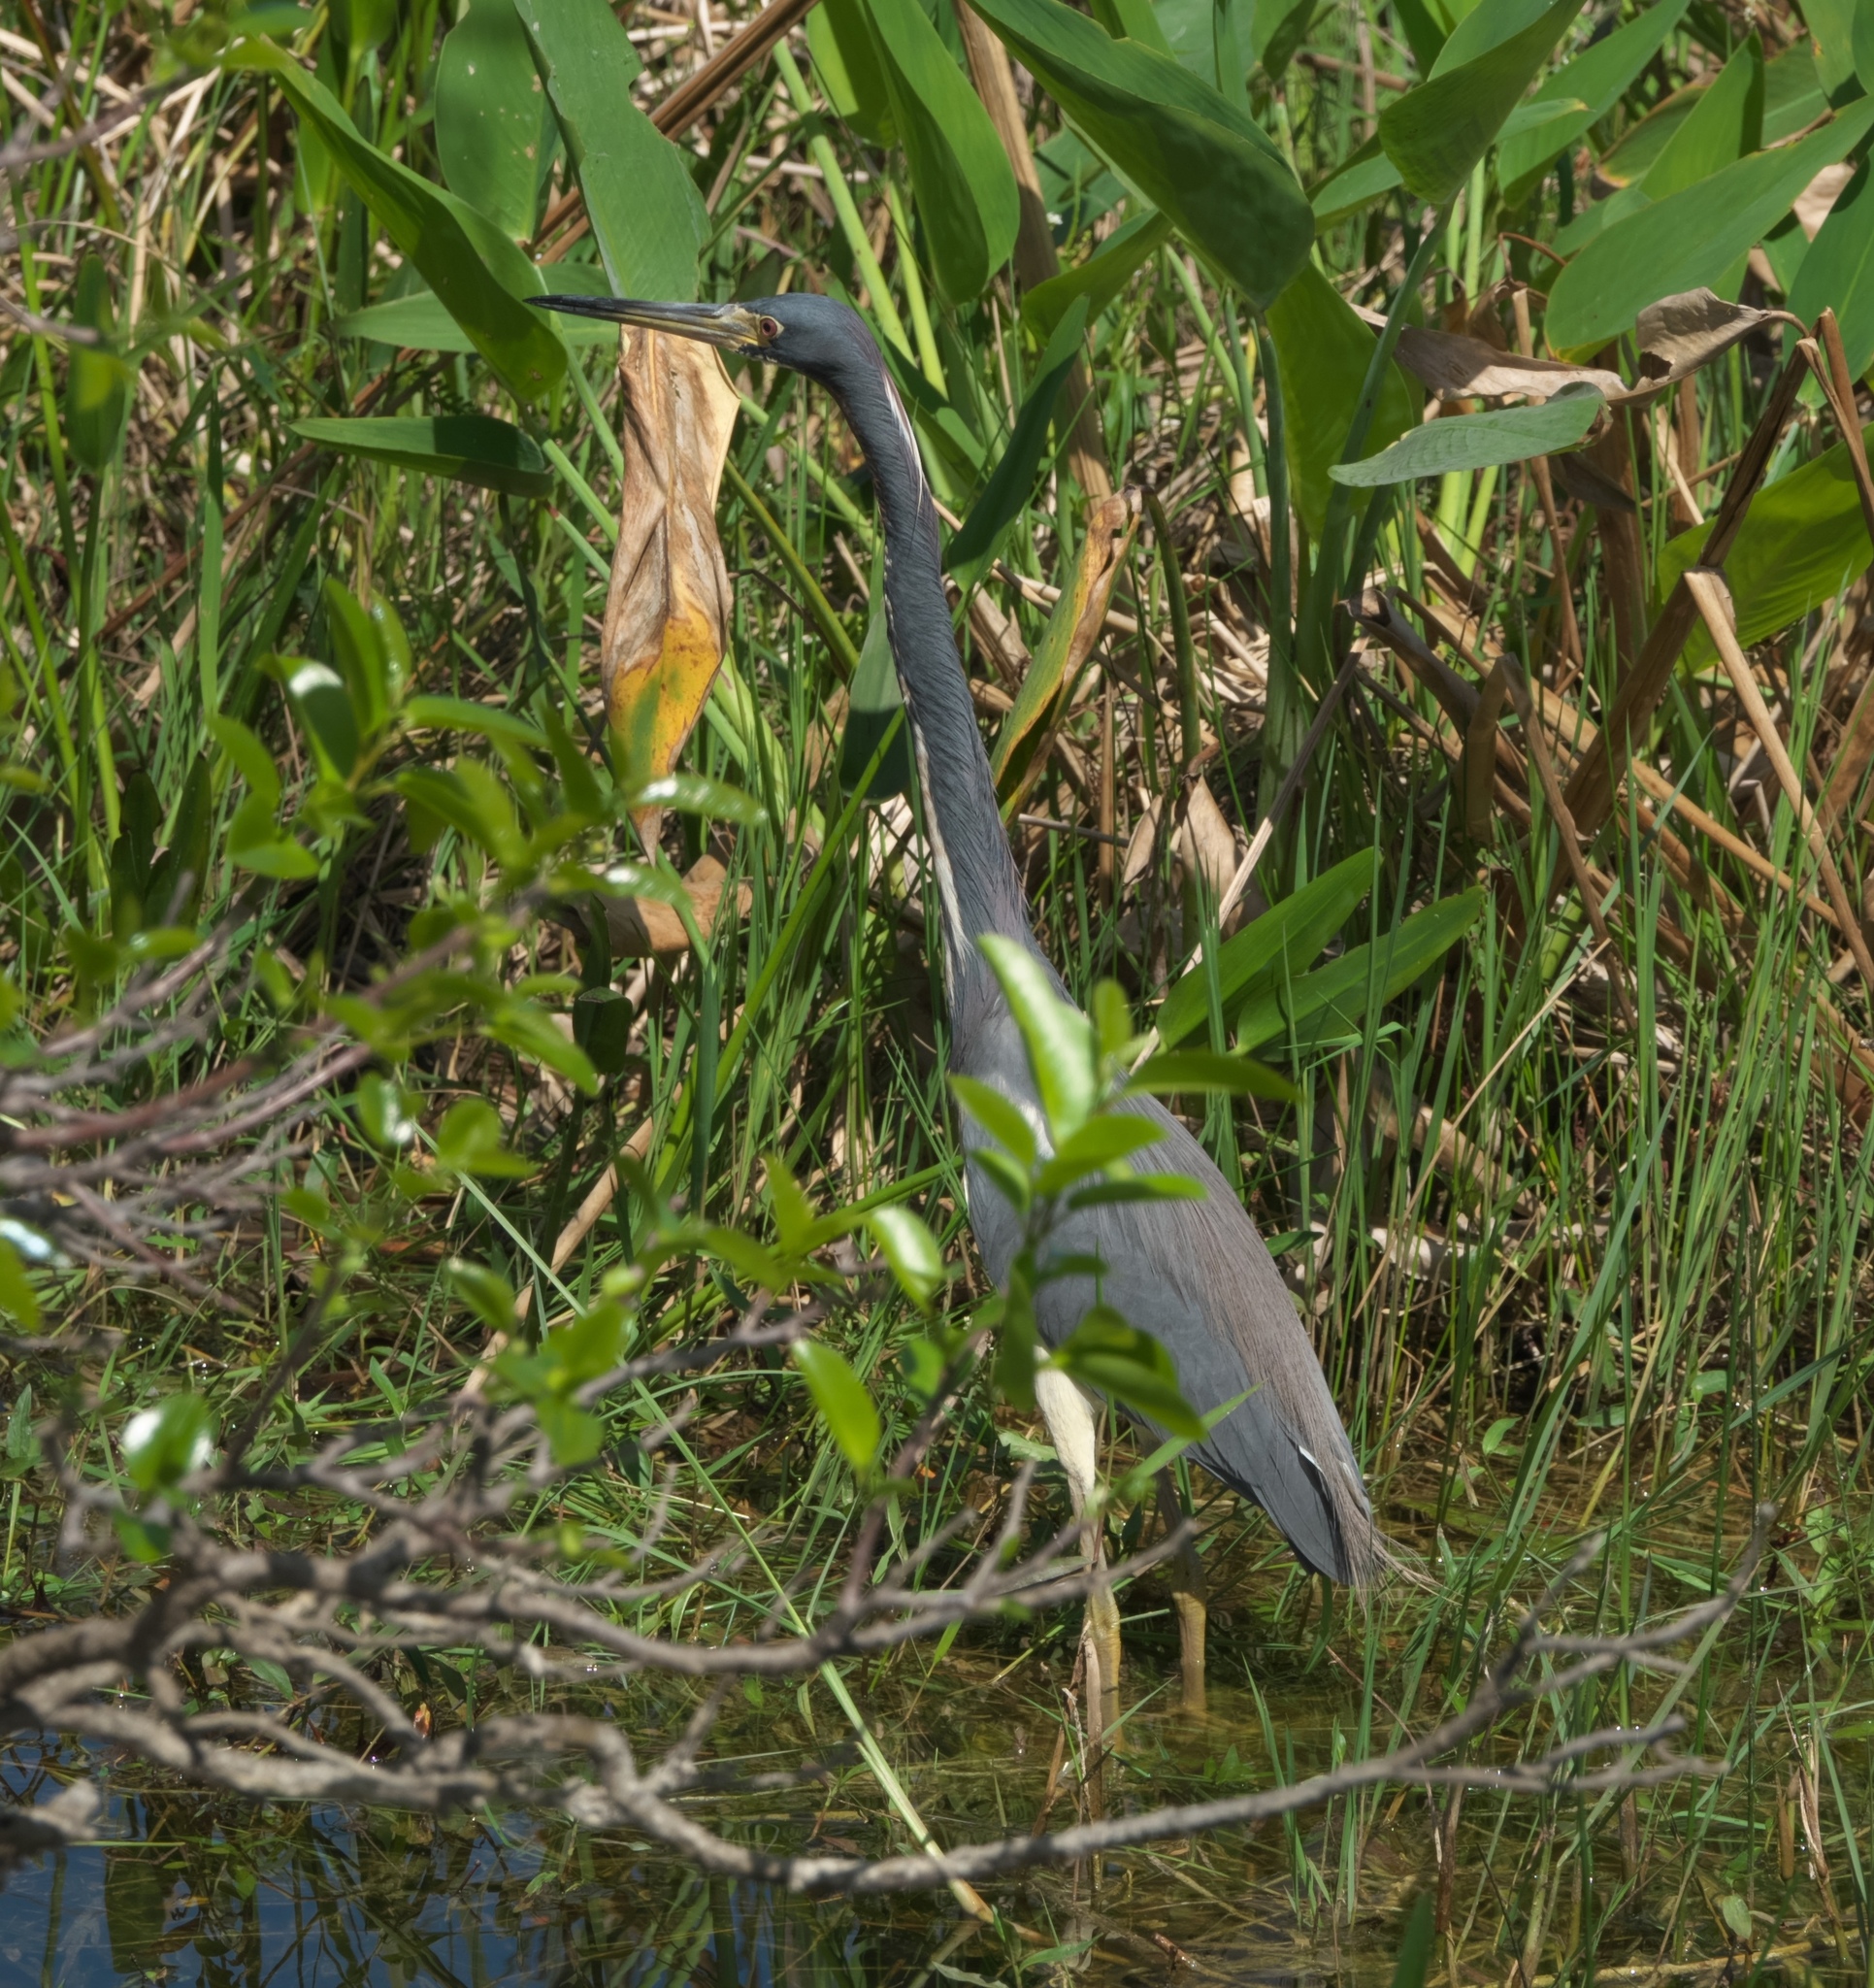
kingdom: Animalia
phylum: Chordata
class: Aves
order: Pelecaniformes
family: Ardeidae
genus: Egretta
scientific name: Egretta tricolor
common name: Tricolored heron
